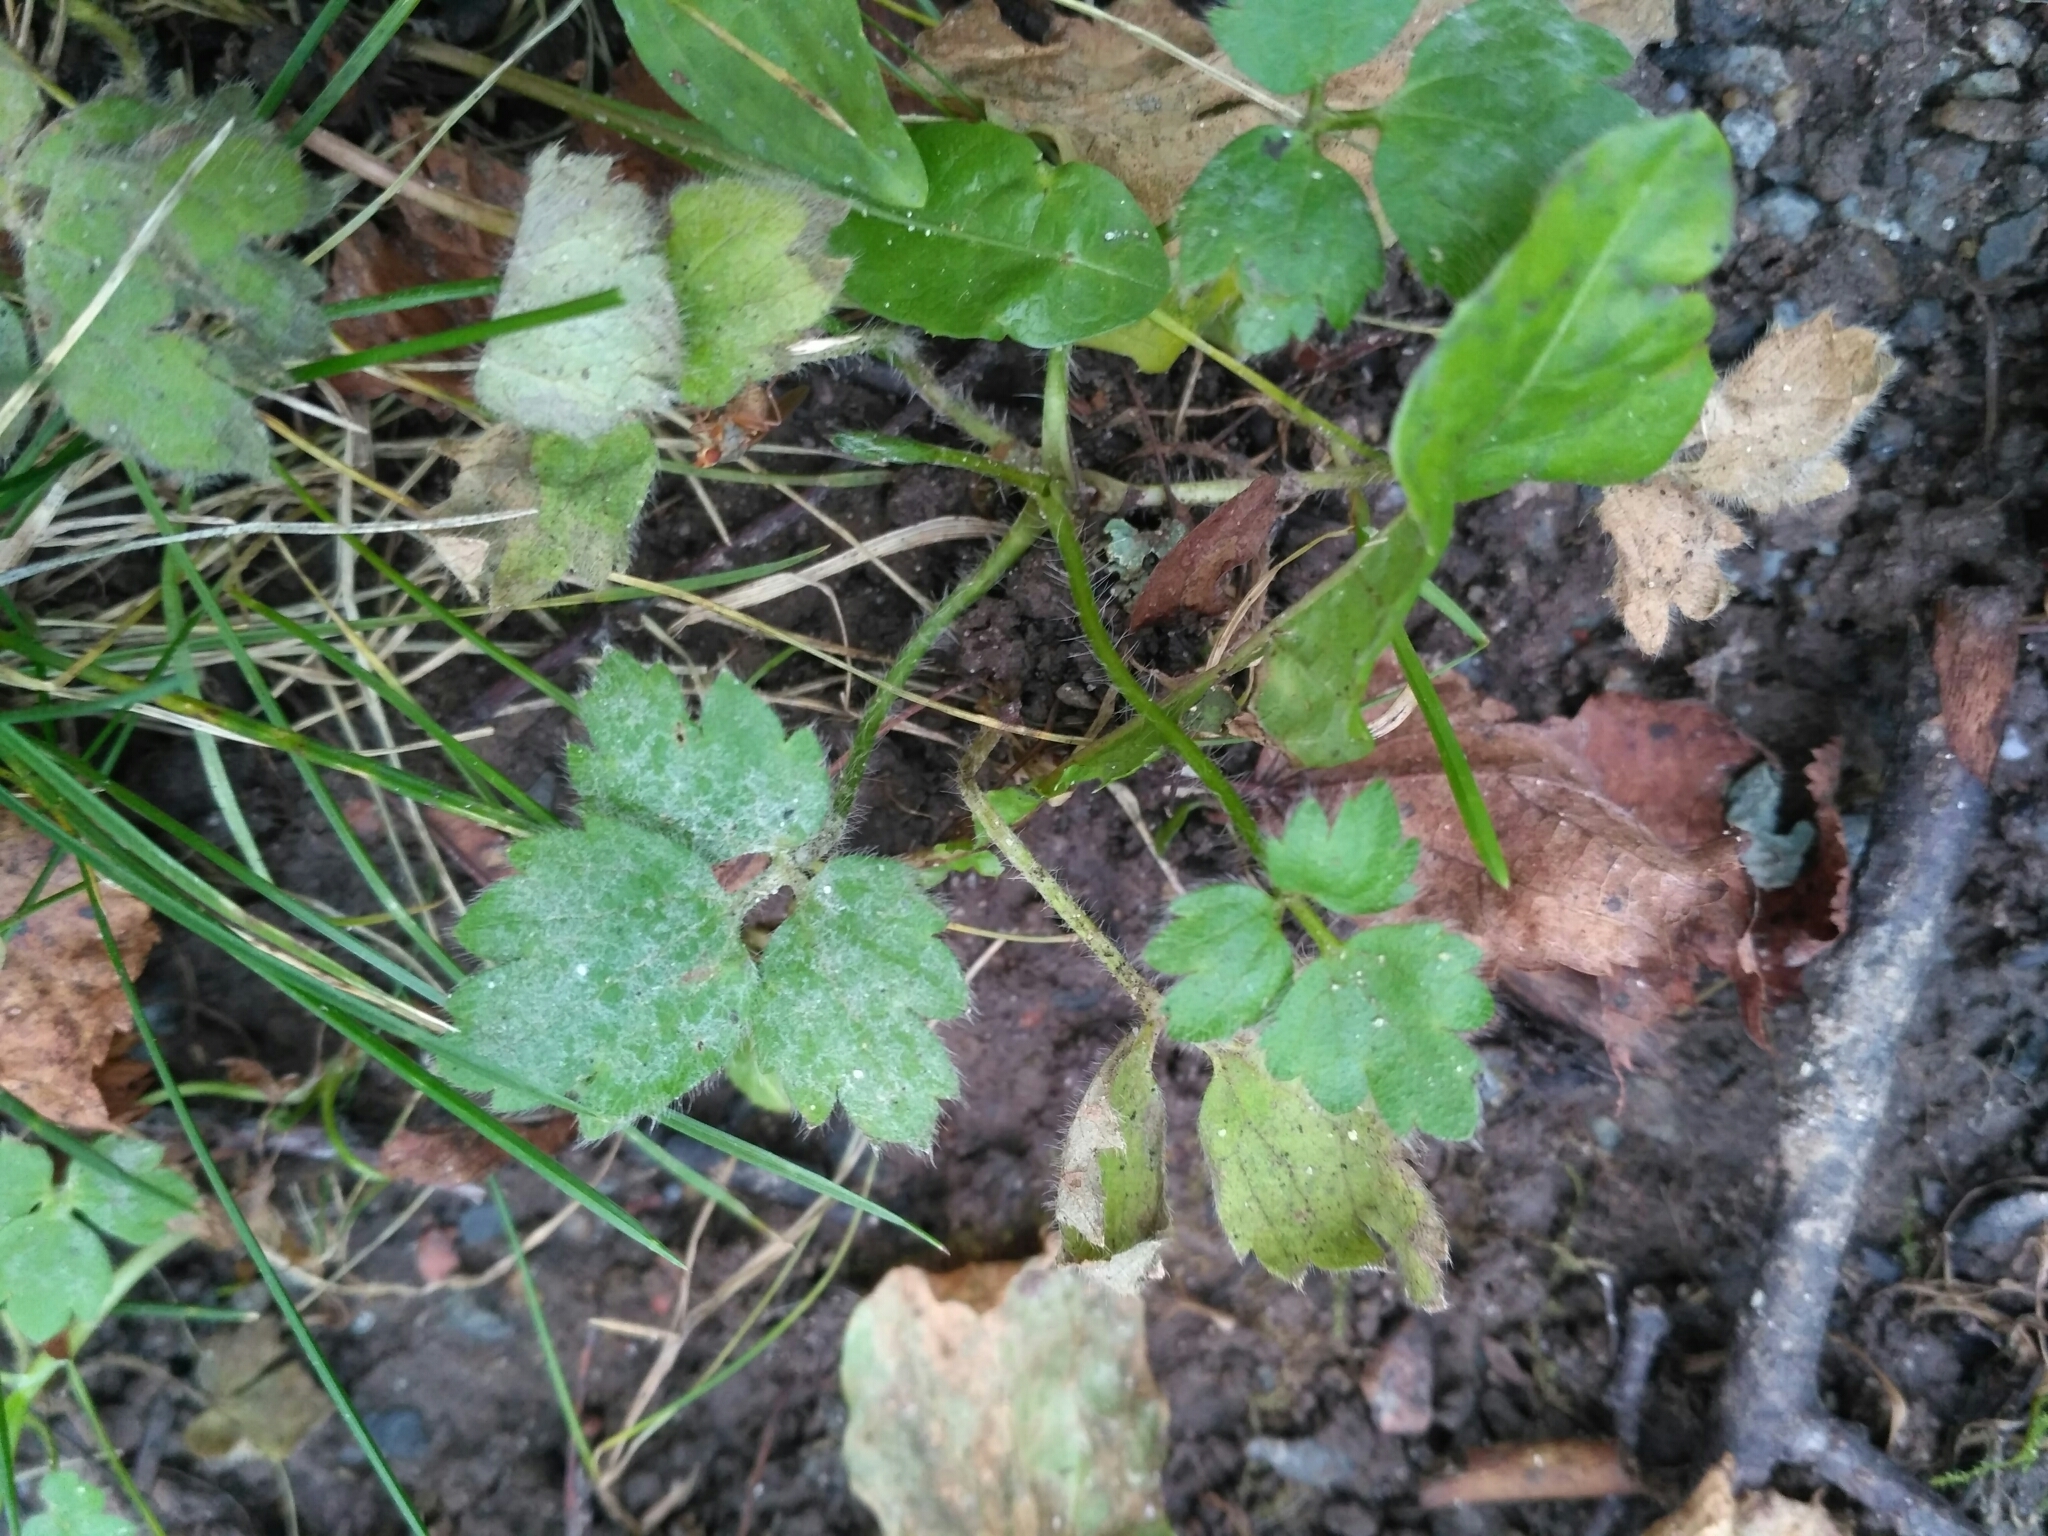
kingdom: Plantae
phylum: Tracheophyta
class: Magnoliopsida
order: Ranunculales
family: Ranunculaceae
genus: Ranunculus
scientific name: Ranunculus repens
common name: Creeping buttercup
